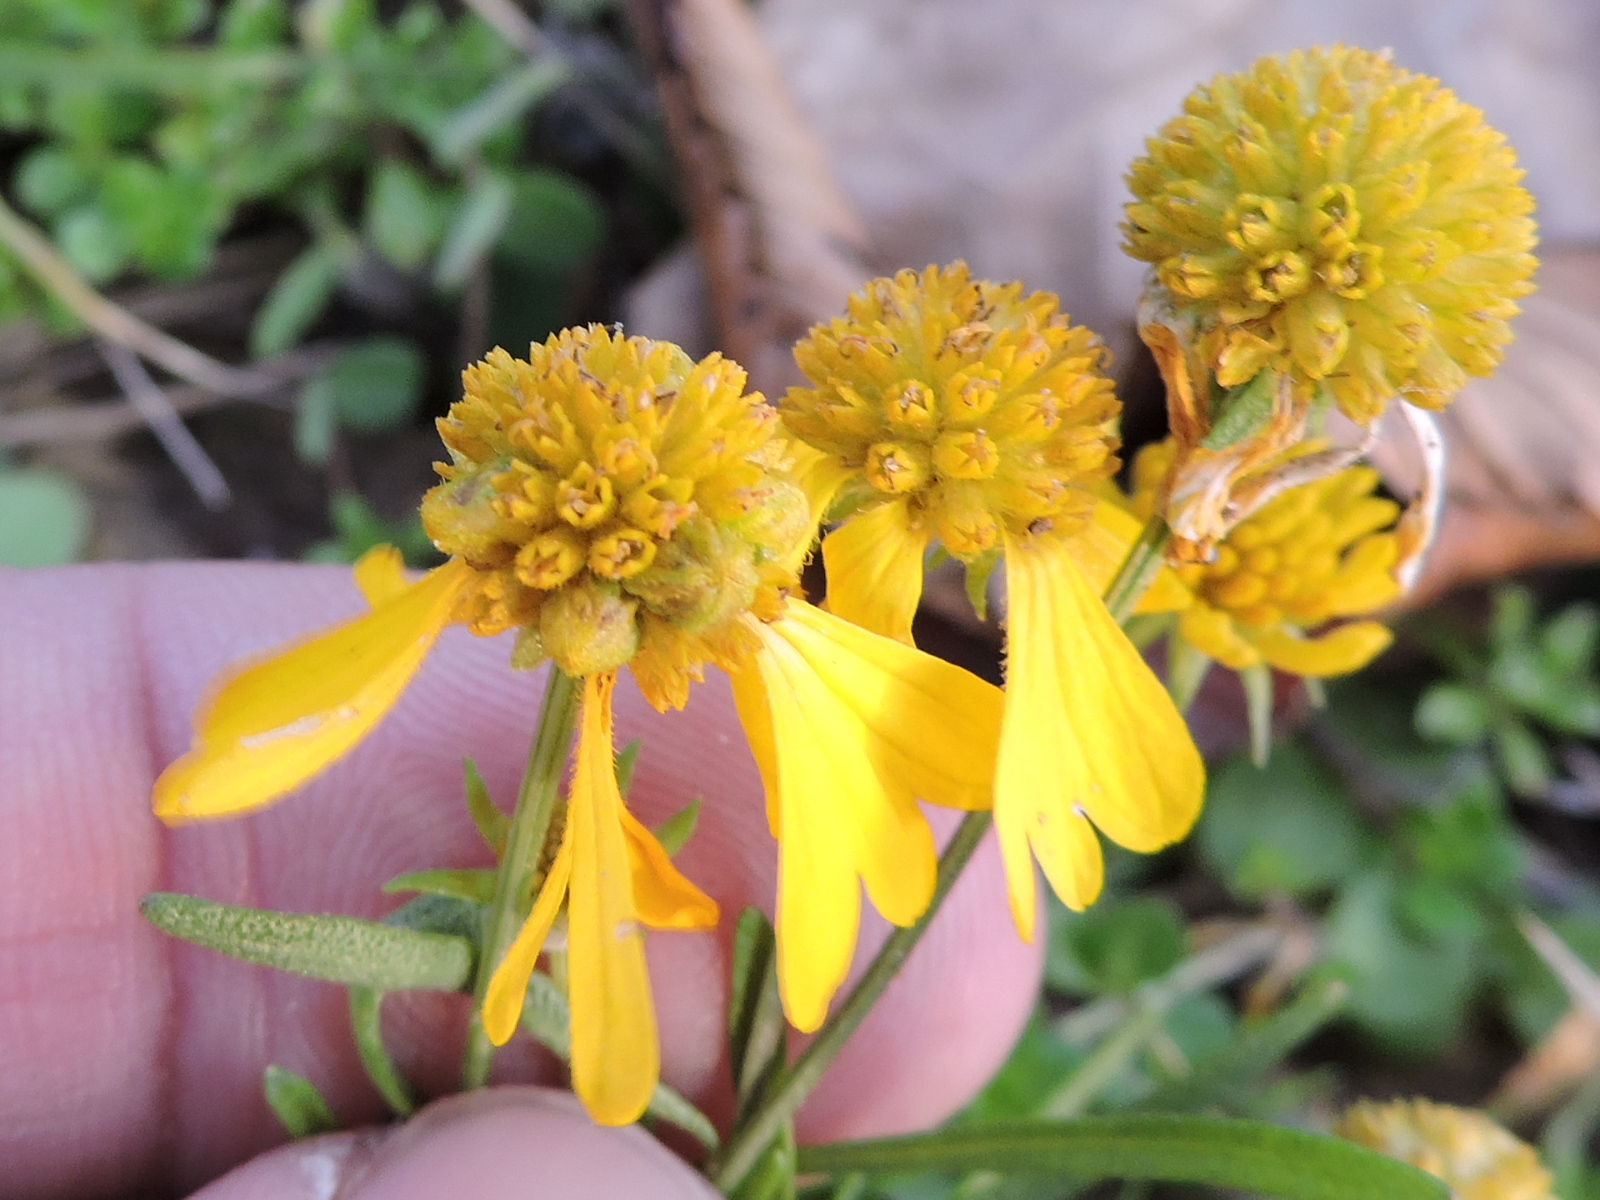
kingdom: Plantae
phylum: Tracheophyta
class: Magnoliopsida
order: Asterales
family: Asteraceae
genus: Helenium
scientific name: Helenium amarum
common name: Bitter sneezeweed
